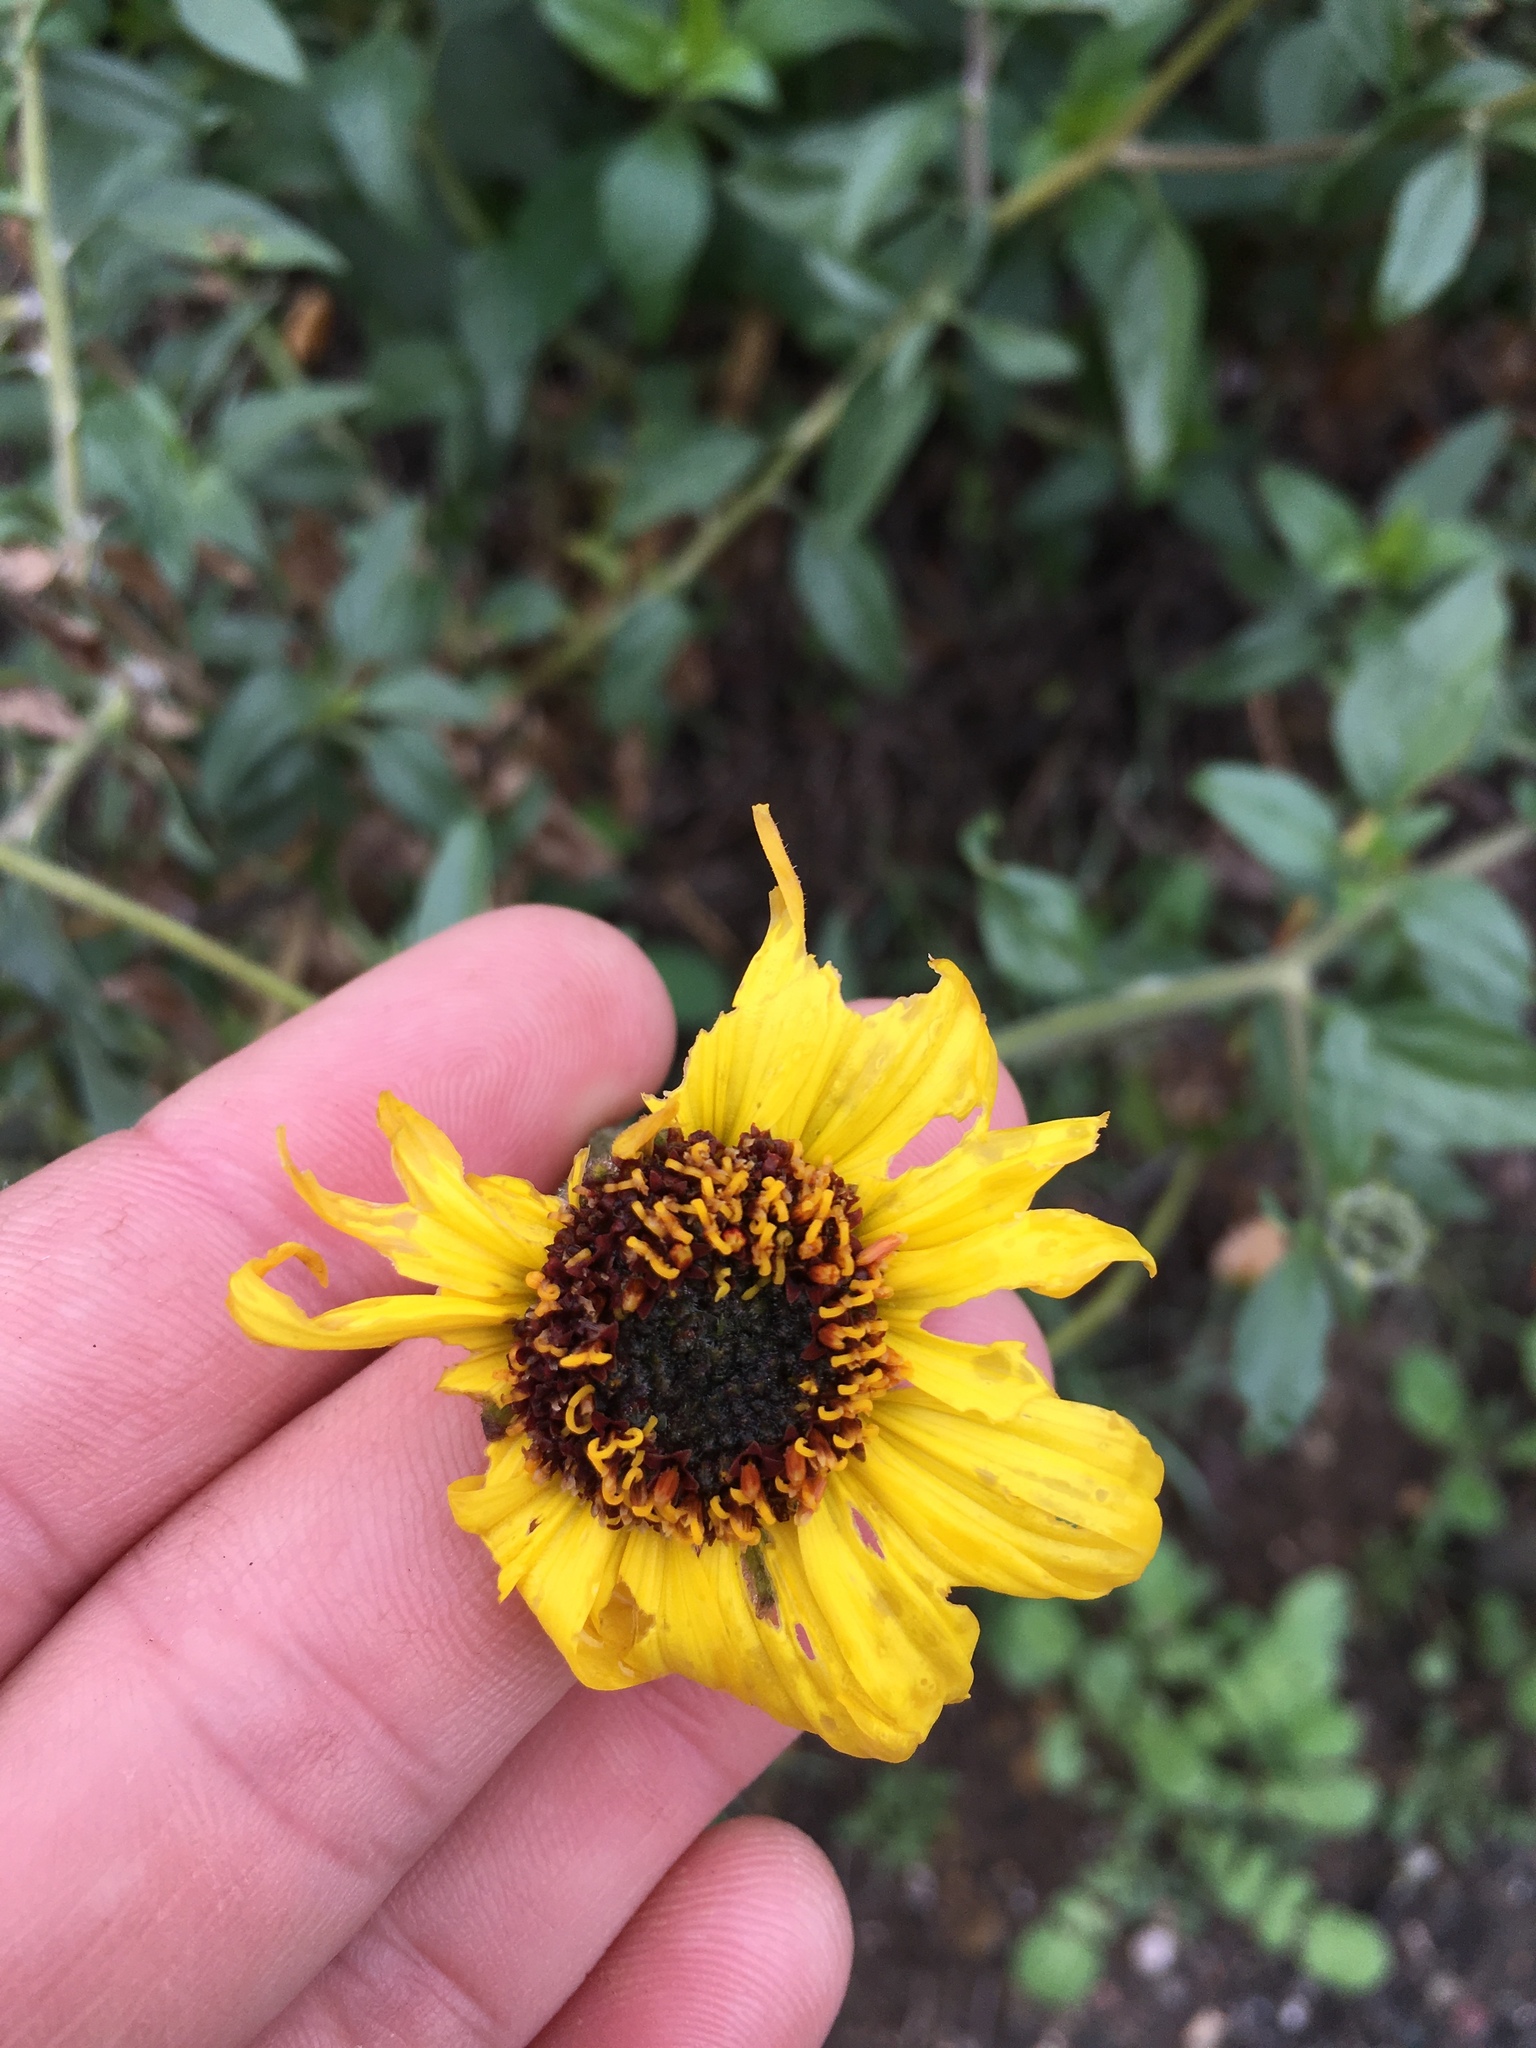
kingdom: Plantae
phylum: Tracheophyta
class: Magnoliopsida
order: Asterales
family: Asteraceae
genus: Encelia
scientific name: Encelia californica
